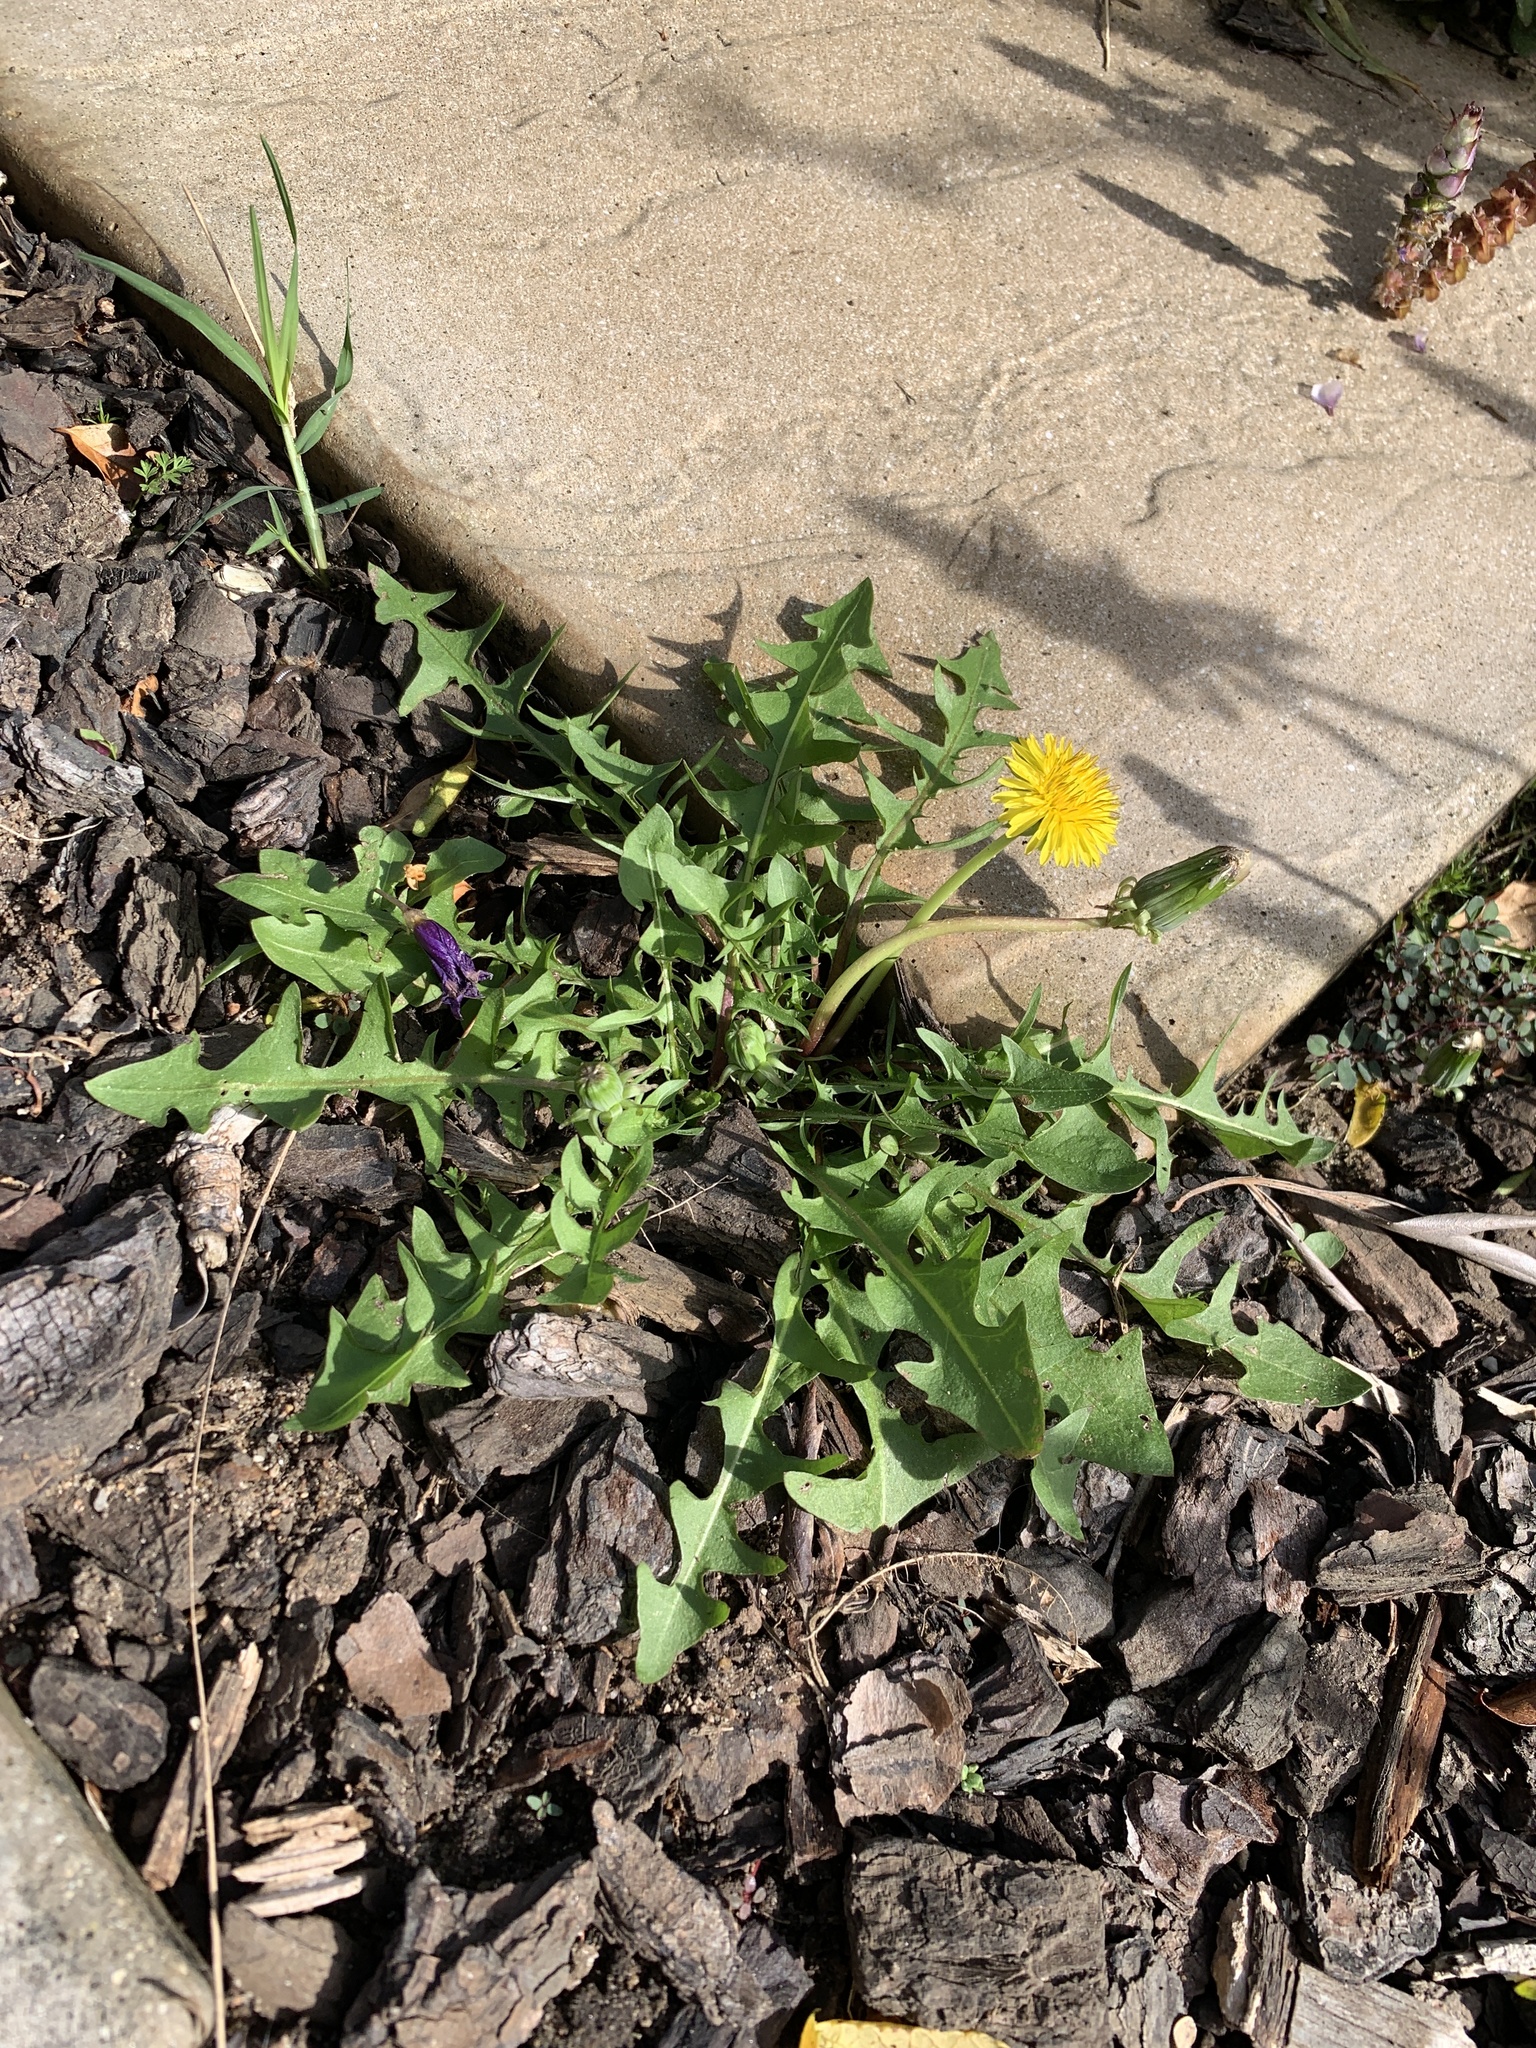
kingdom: Plantae
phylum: Tracheophyta
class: Magnoliopsida
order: Asterales
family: Asteraceae
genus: Taraxacum
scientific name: Taraxacum officinale
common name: Common dandelion
